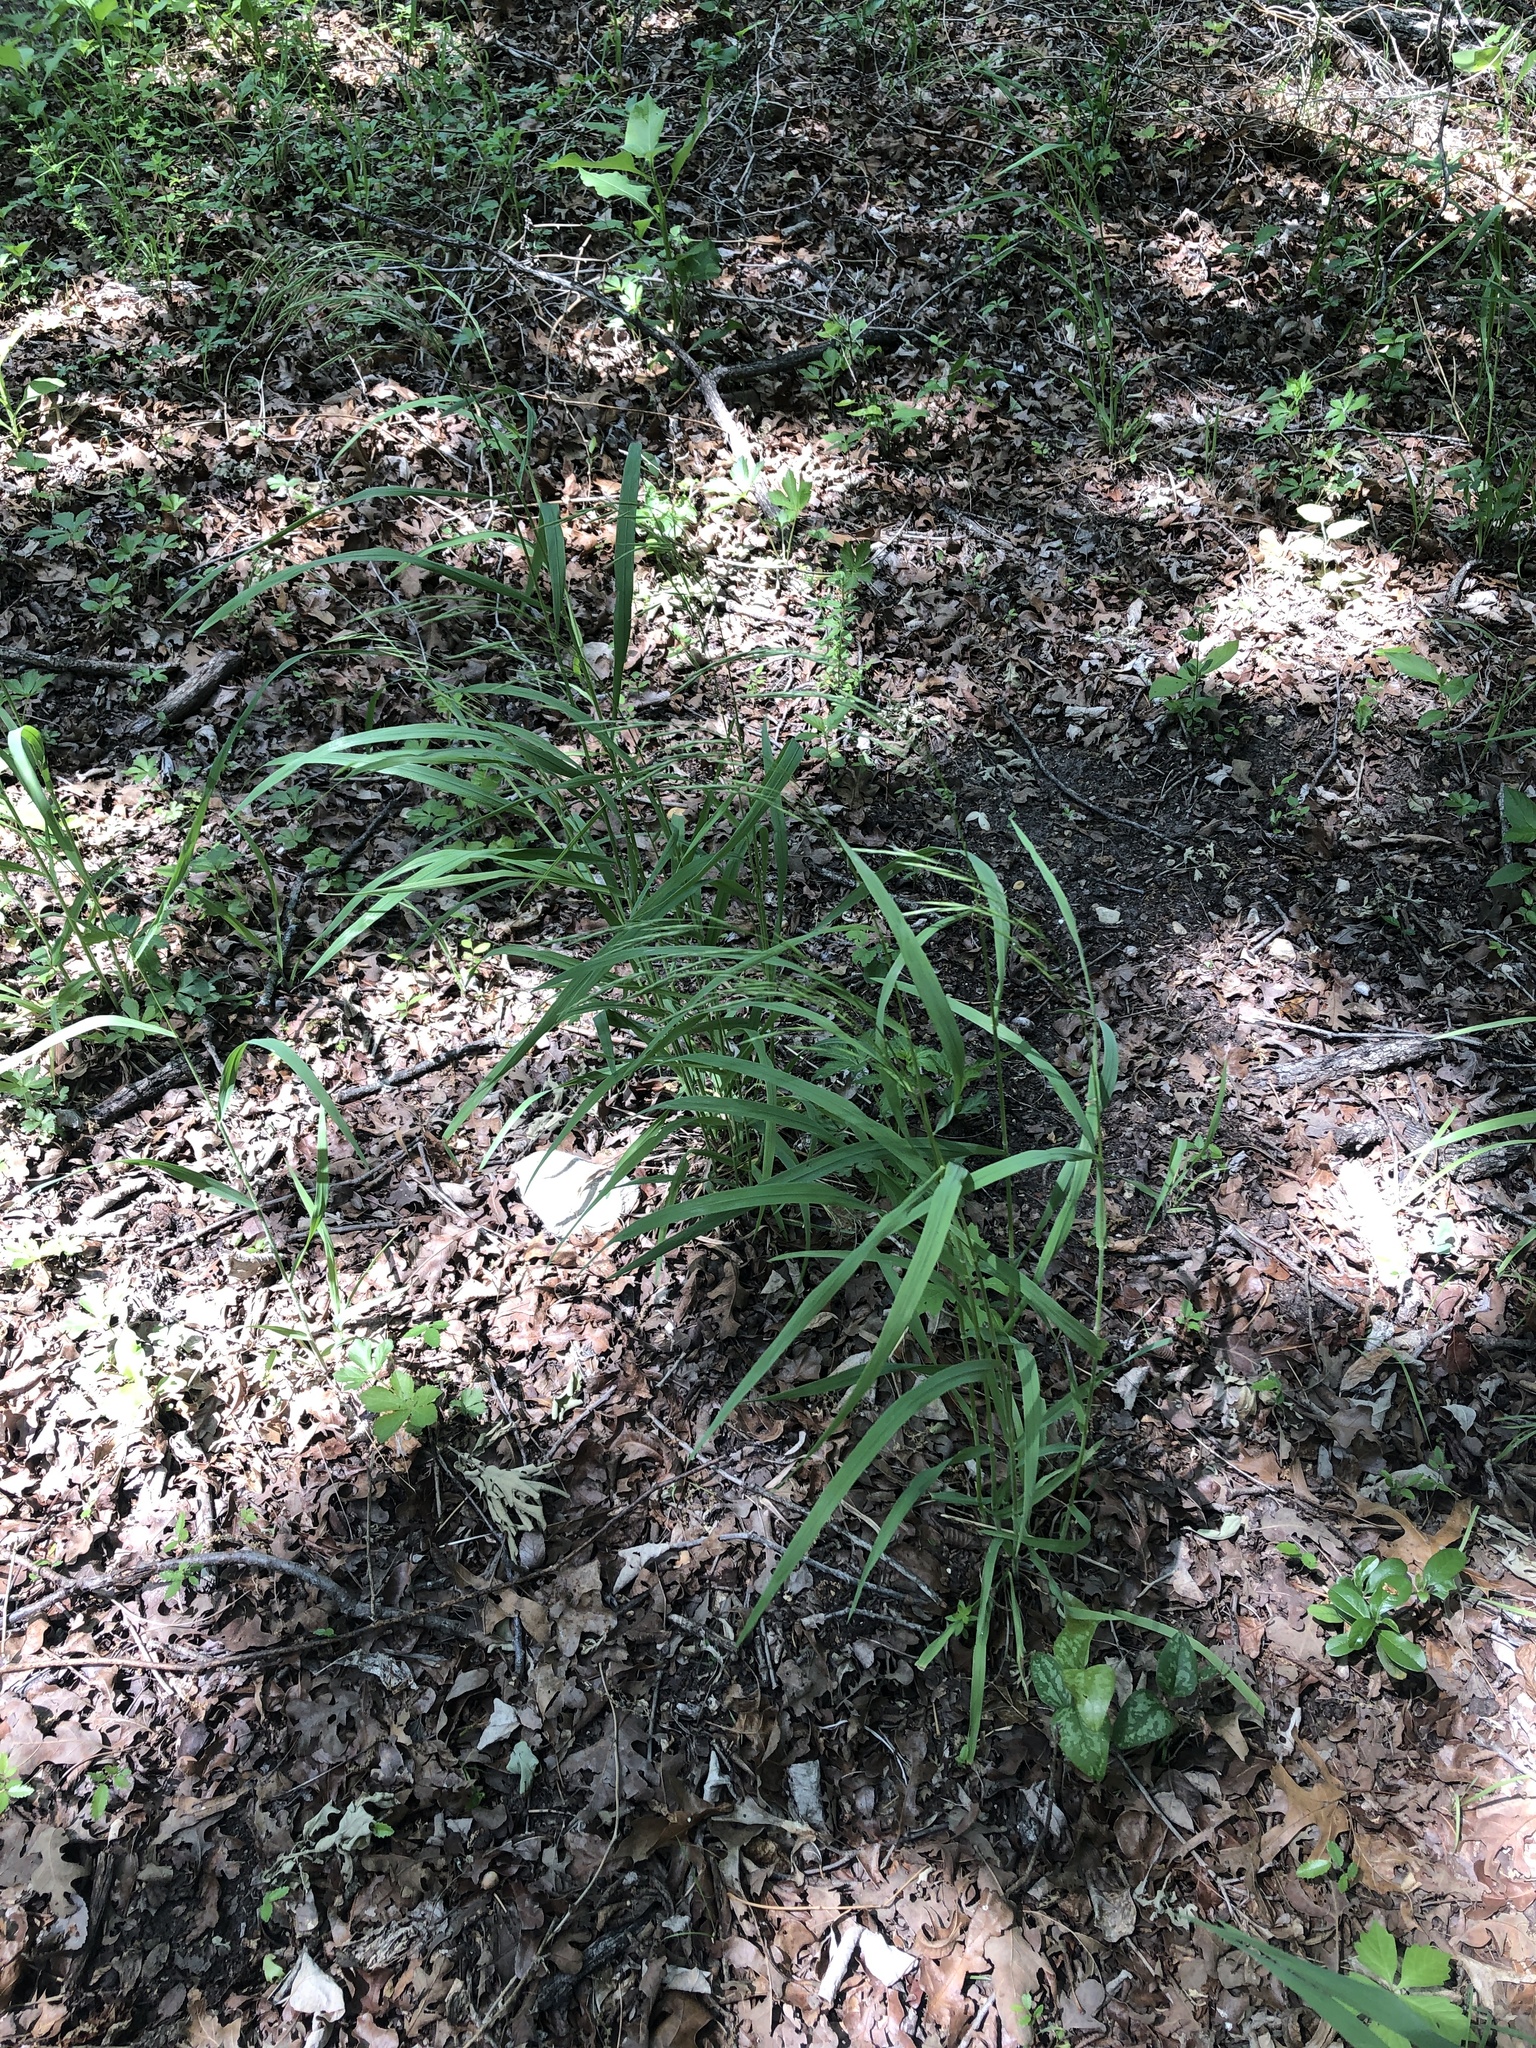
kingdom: Plantae
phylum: Tracheophyta
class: Liliopsida
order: Poales
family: Poaceae
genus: Bromus
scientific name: Bromus pubescens
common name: Hairy wood brome grass
